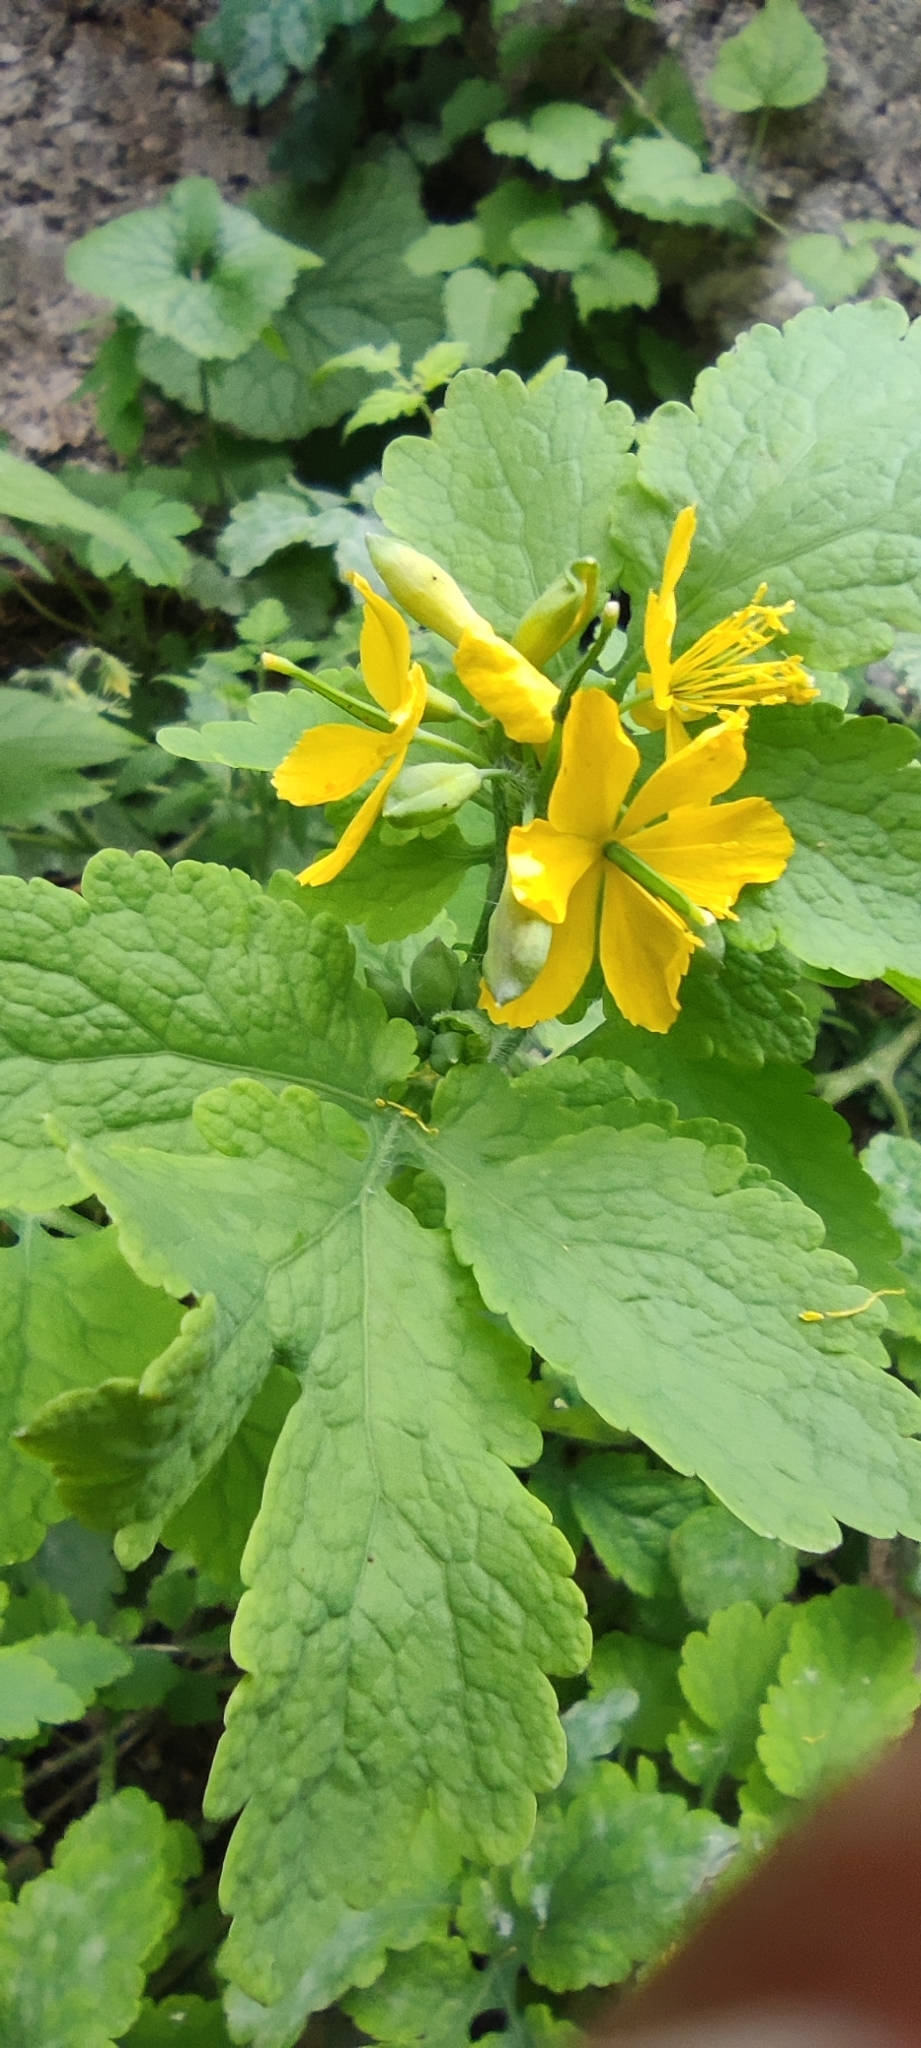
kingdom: Plantae
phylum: Tracheophyta
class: Magnoliopsida
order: Ranunculales
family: Papaveraceae
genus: Chelidonium
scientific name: Chelidonium majus
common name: Greater celandine
